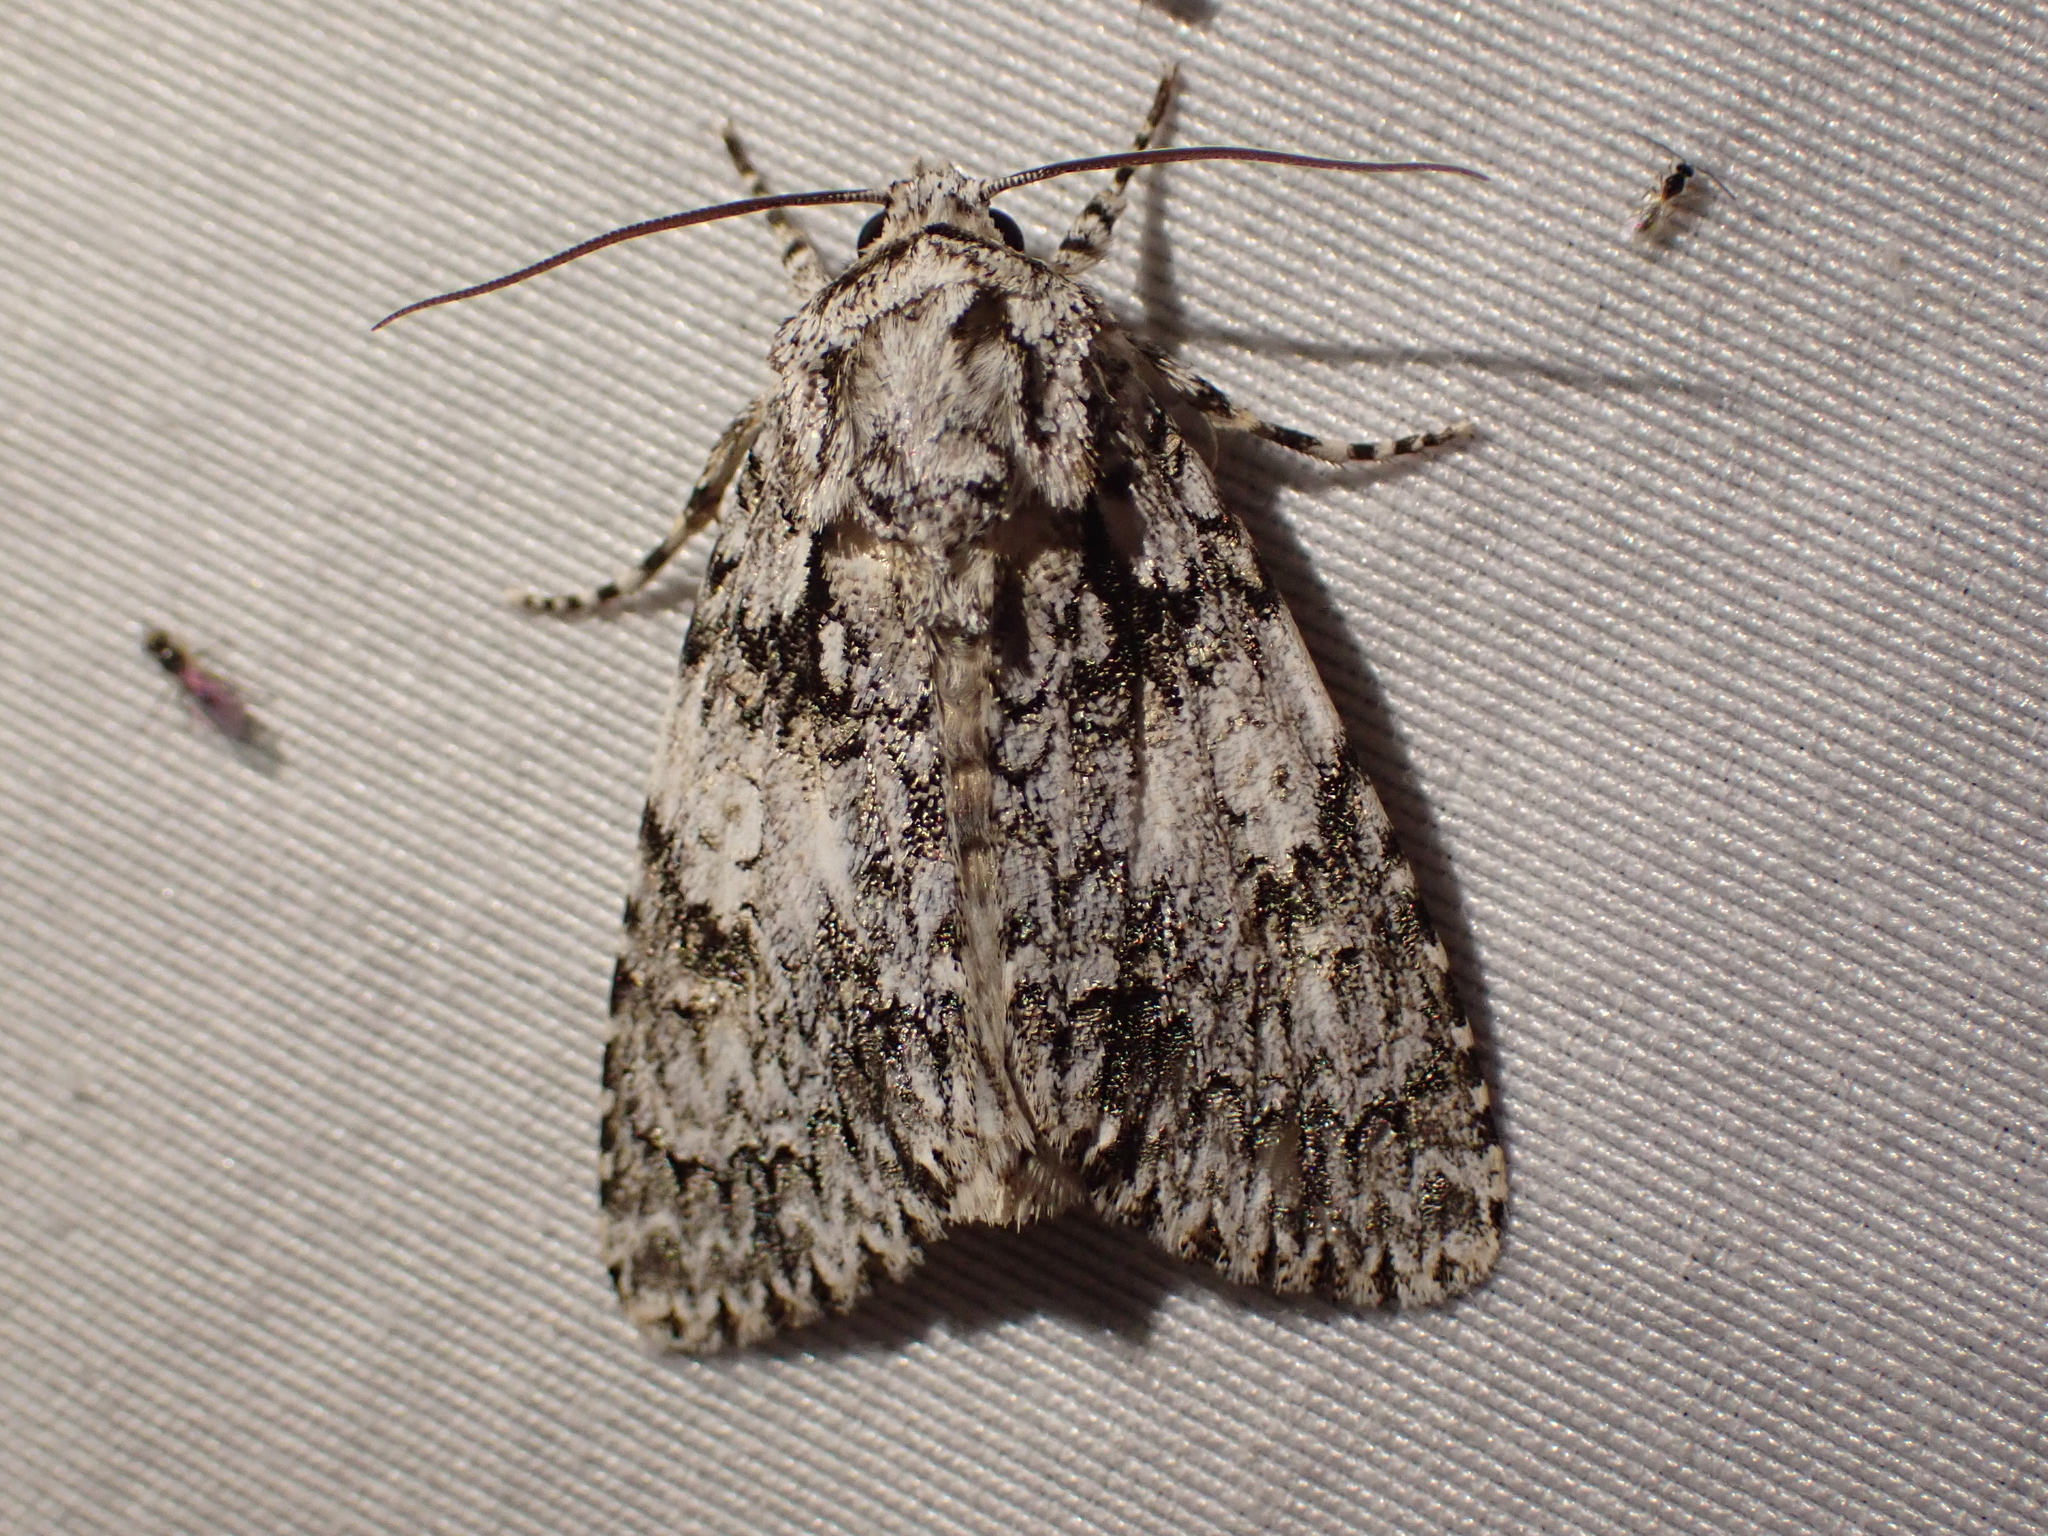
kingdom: Animalia
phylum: Arthropoda
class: Insecta
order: Lepidoptera
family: Noctuidae
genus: Acronicta
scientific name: Acronicta marmorata
